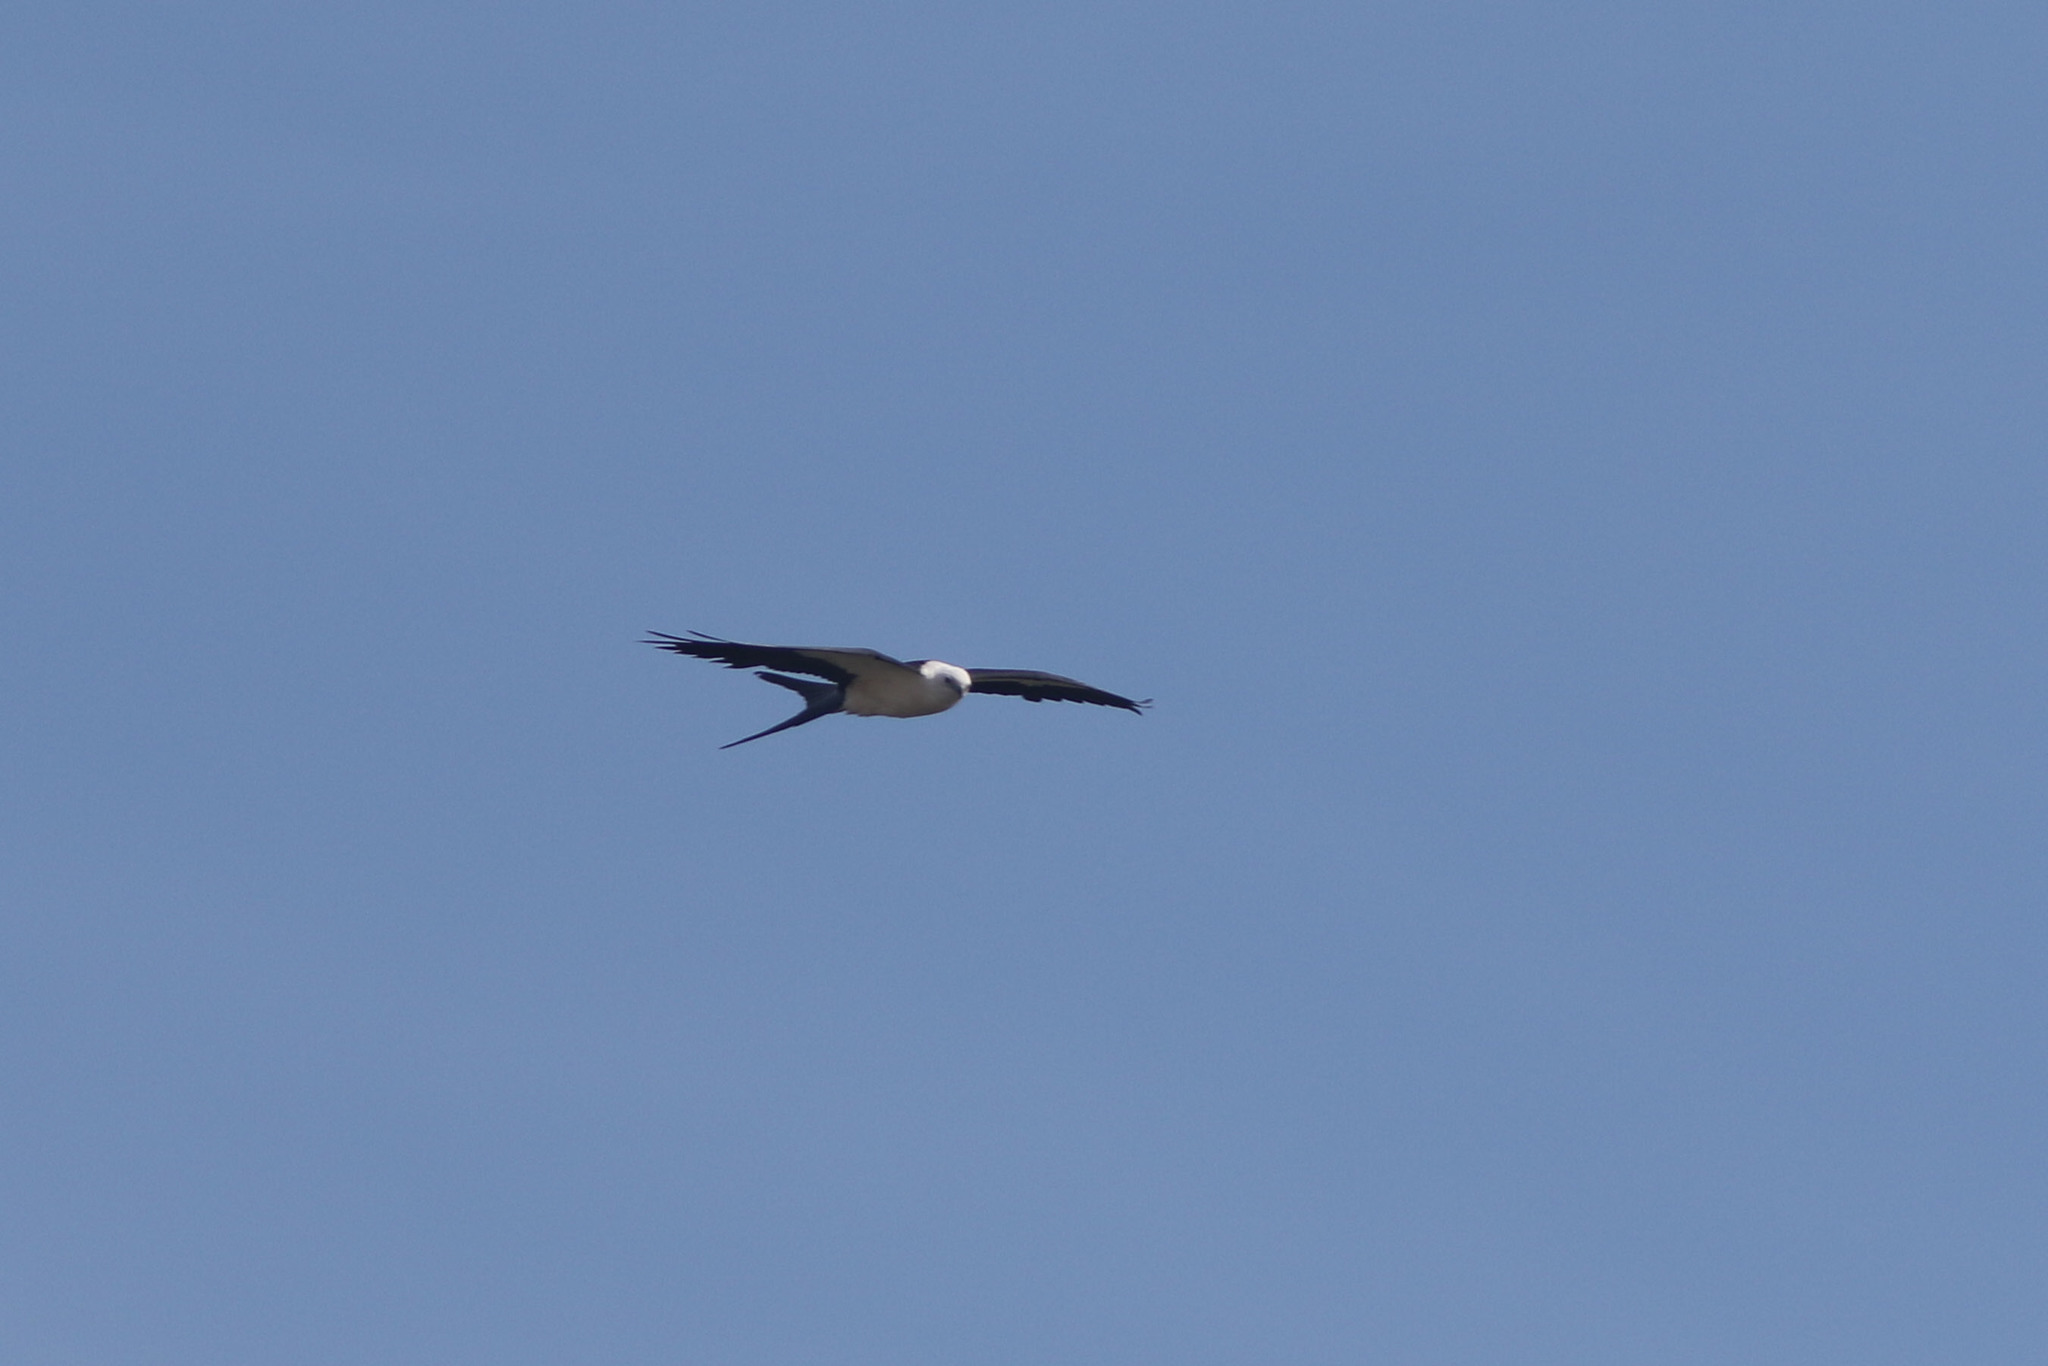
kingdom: Animalia
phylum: Chordata
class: Aves
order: Accipitriformes
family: Accipitridae
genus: Elanoides
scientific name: Elanoides forficatus
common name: Swallow-tailed kite
